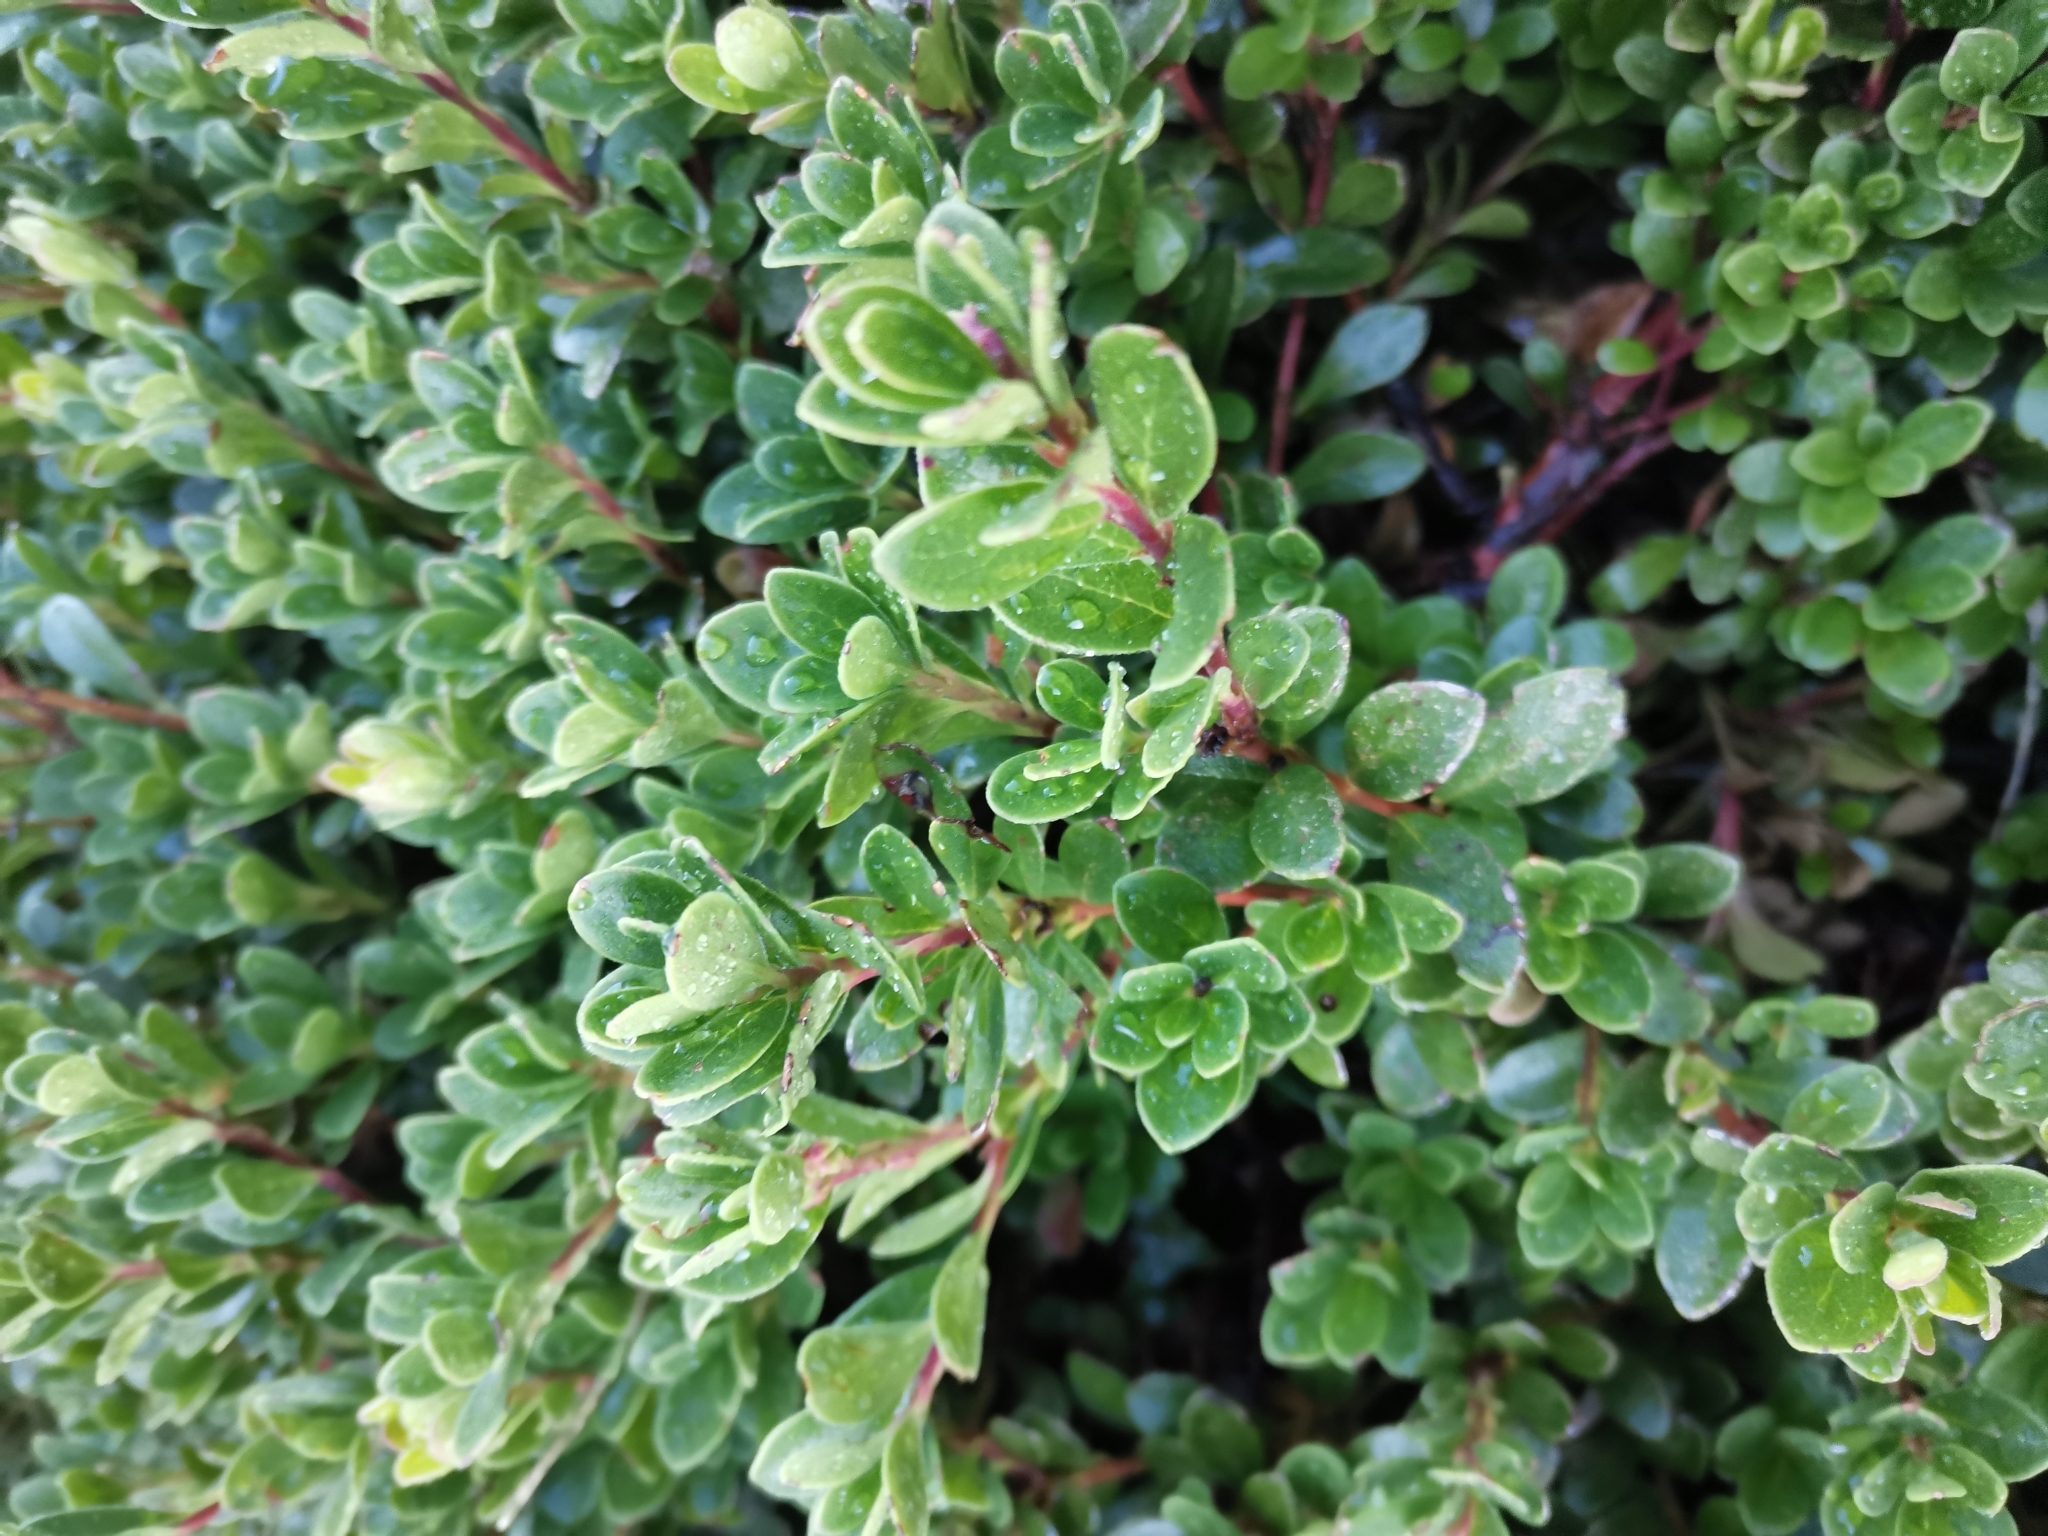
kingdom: Plantae
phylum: Tracheophyta
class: Magnoliopsida
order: Ericales
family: Ericaceae
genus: Arctostaphylos
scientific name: Arctostaphylos uva-ursi
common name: Bearberry
